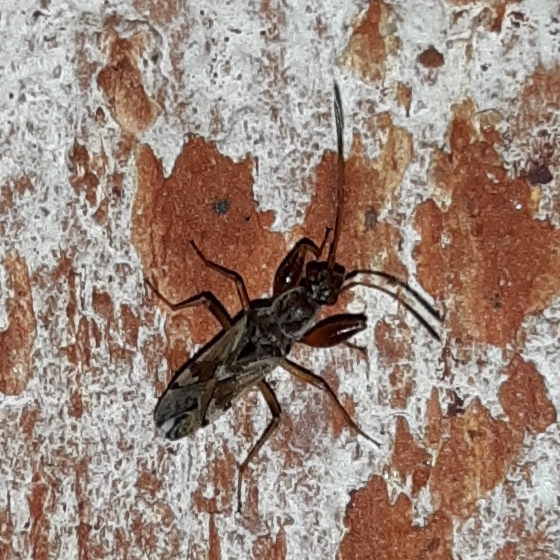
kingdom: Animalia
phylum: Arthropoda
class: Insecta
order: Hemiptera
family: Rhyparochromidae
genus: Neopamera
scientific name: Neopamera bilobata
